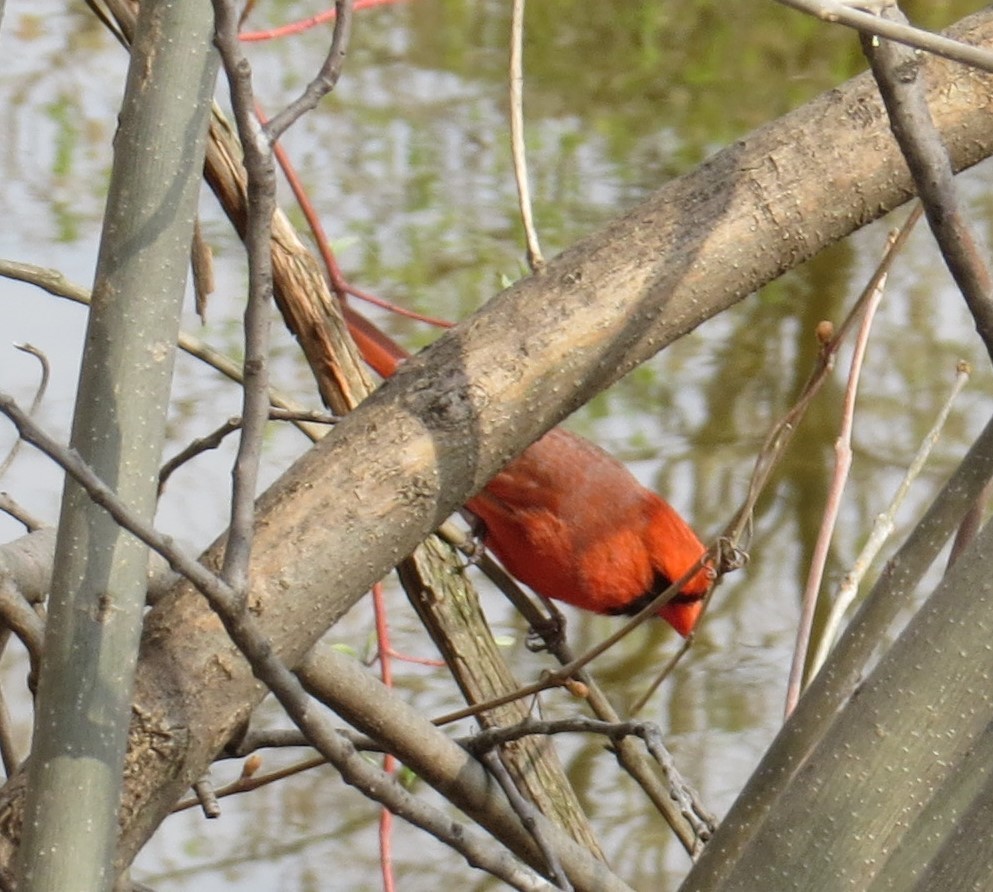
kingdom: Animalia
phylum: Chordata
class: Aves
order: Passeriformes
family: Cardinalidae
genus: Cardinalis
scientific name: Cardinalis cardinalis
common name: Northern cardinal
